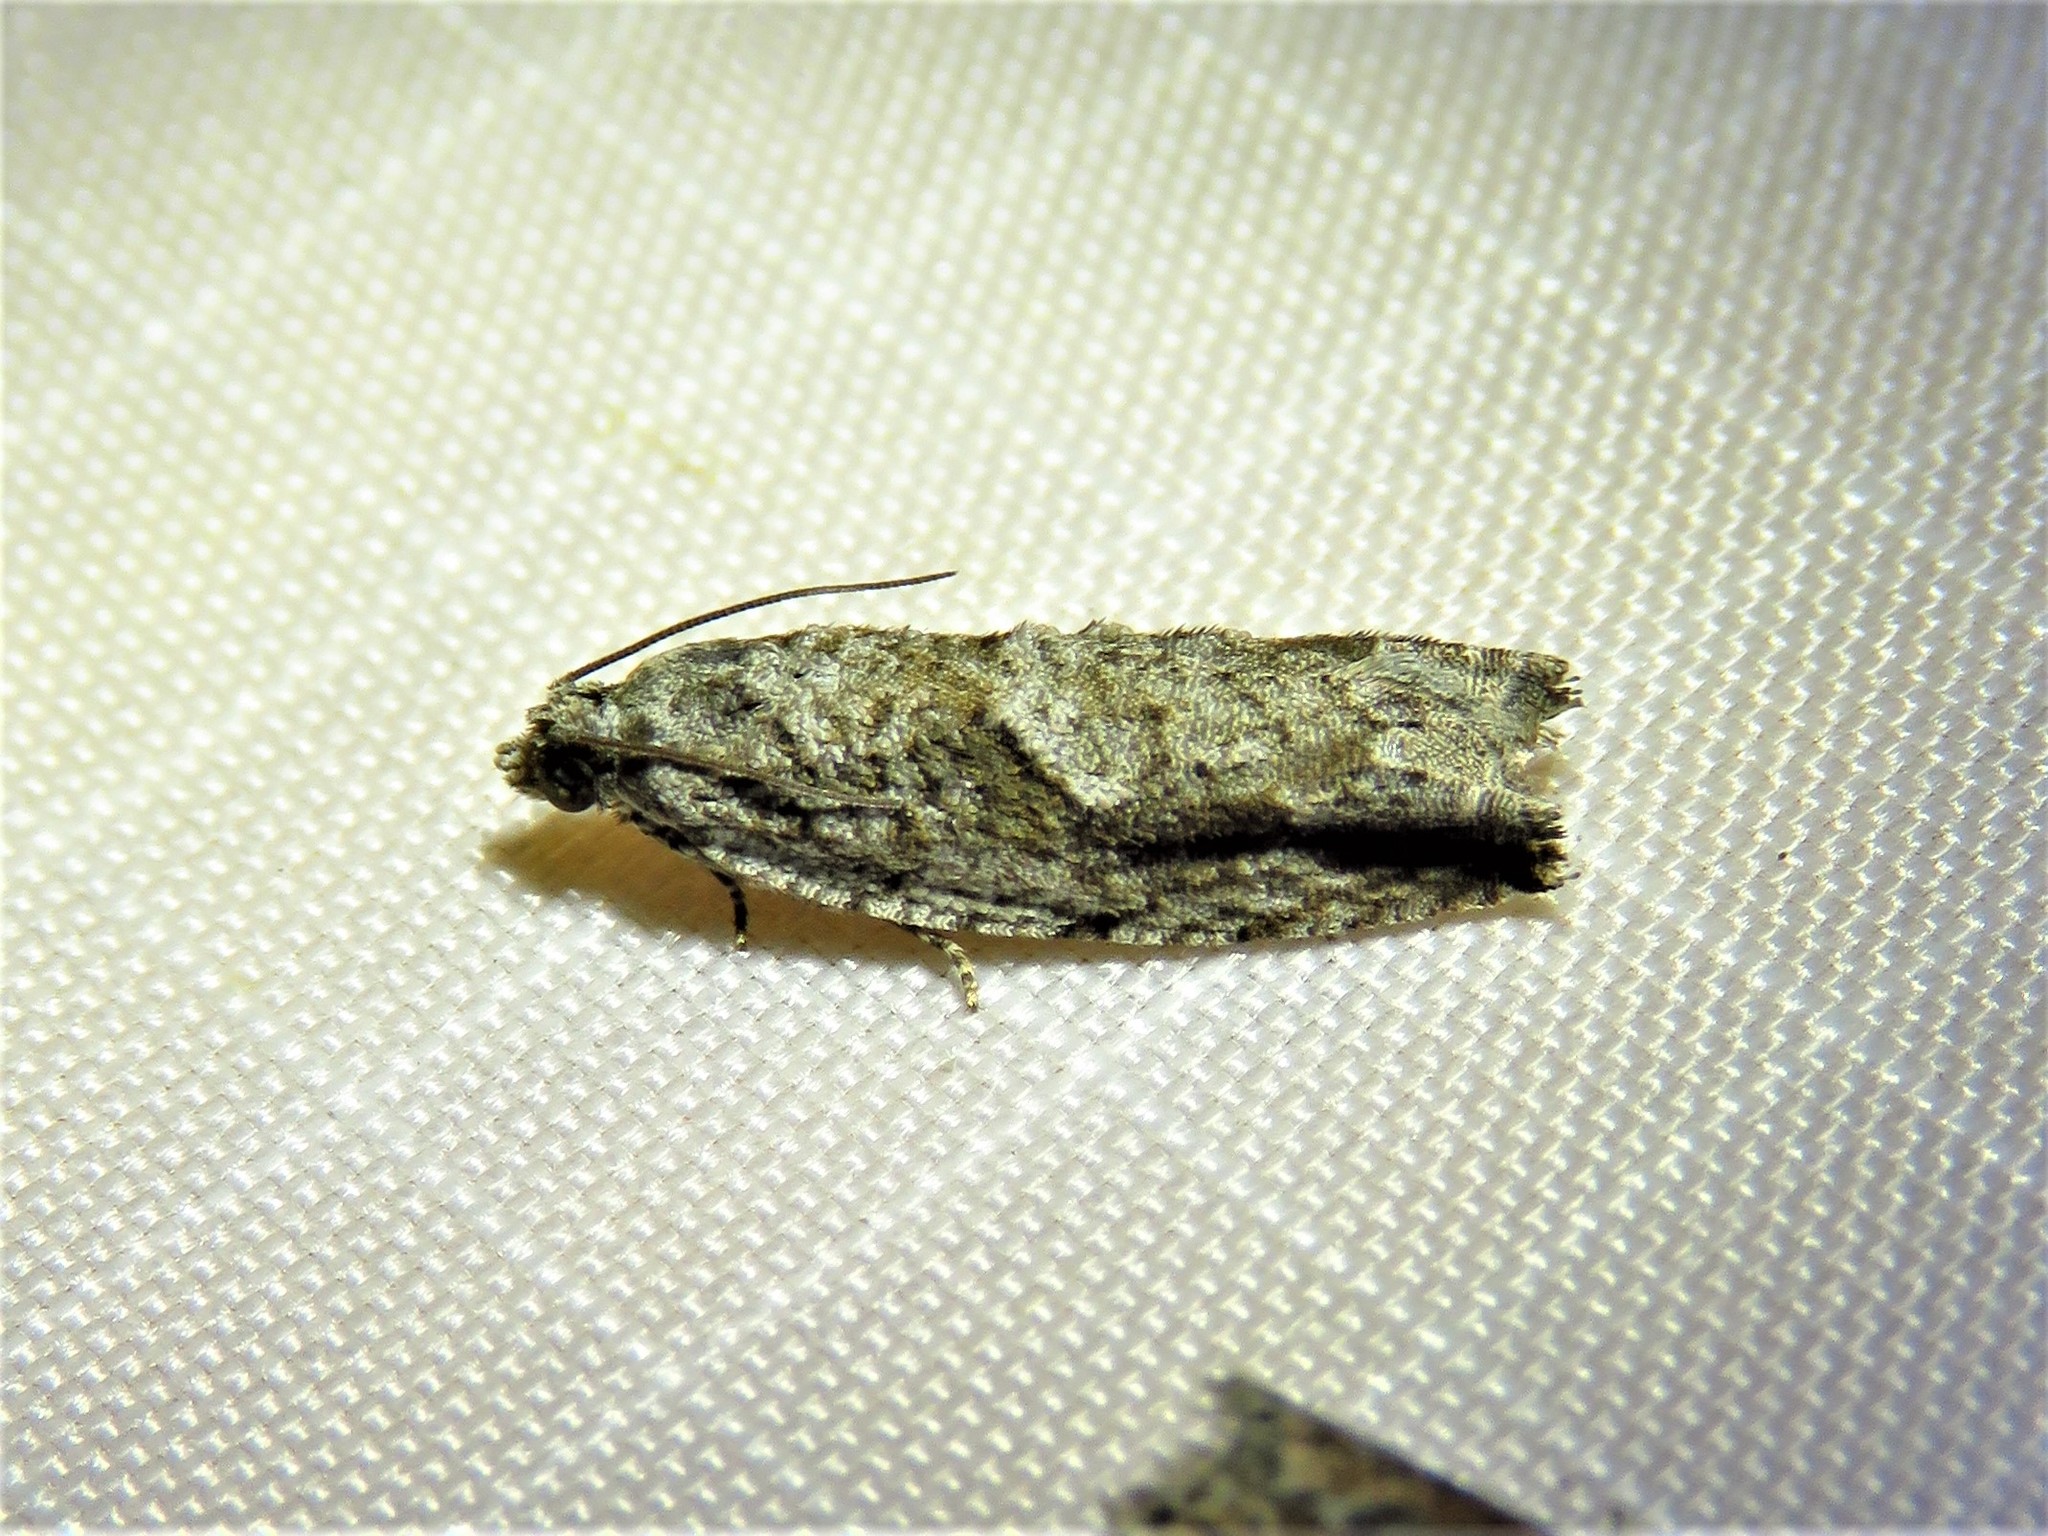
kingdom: Animalia
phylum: Arthropoda
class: Insecta
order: Lepidoptera
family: Tortricidae
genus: Gretchena
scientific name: Gretchena bolliana
